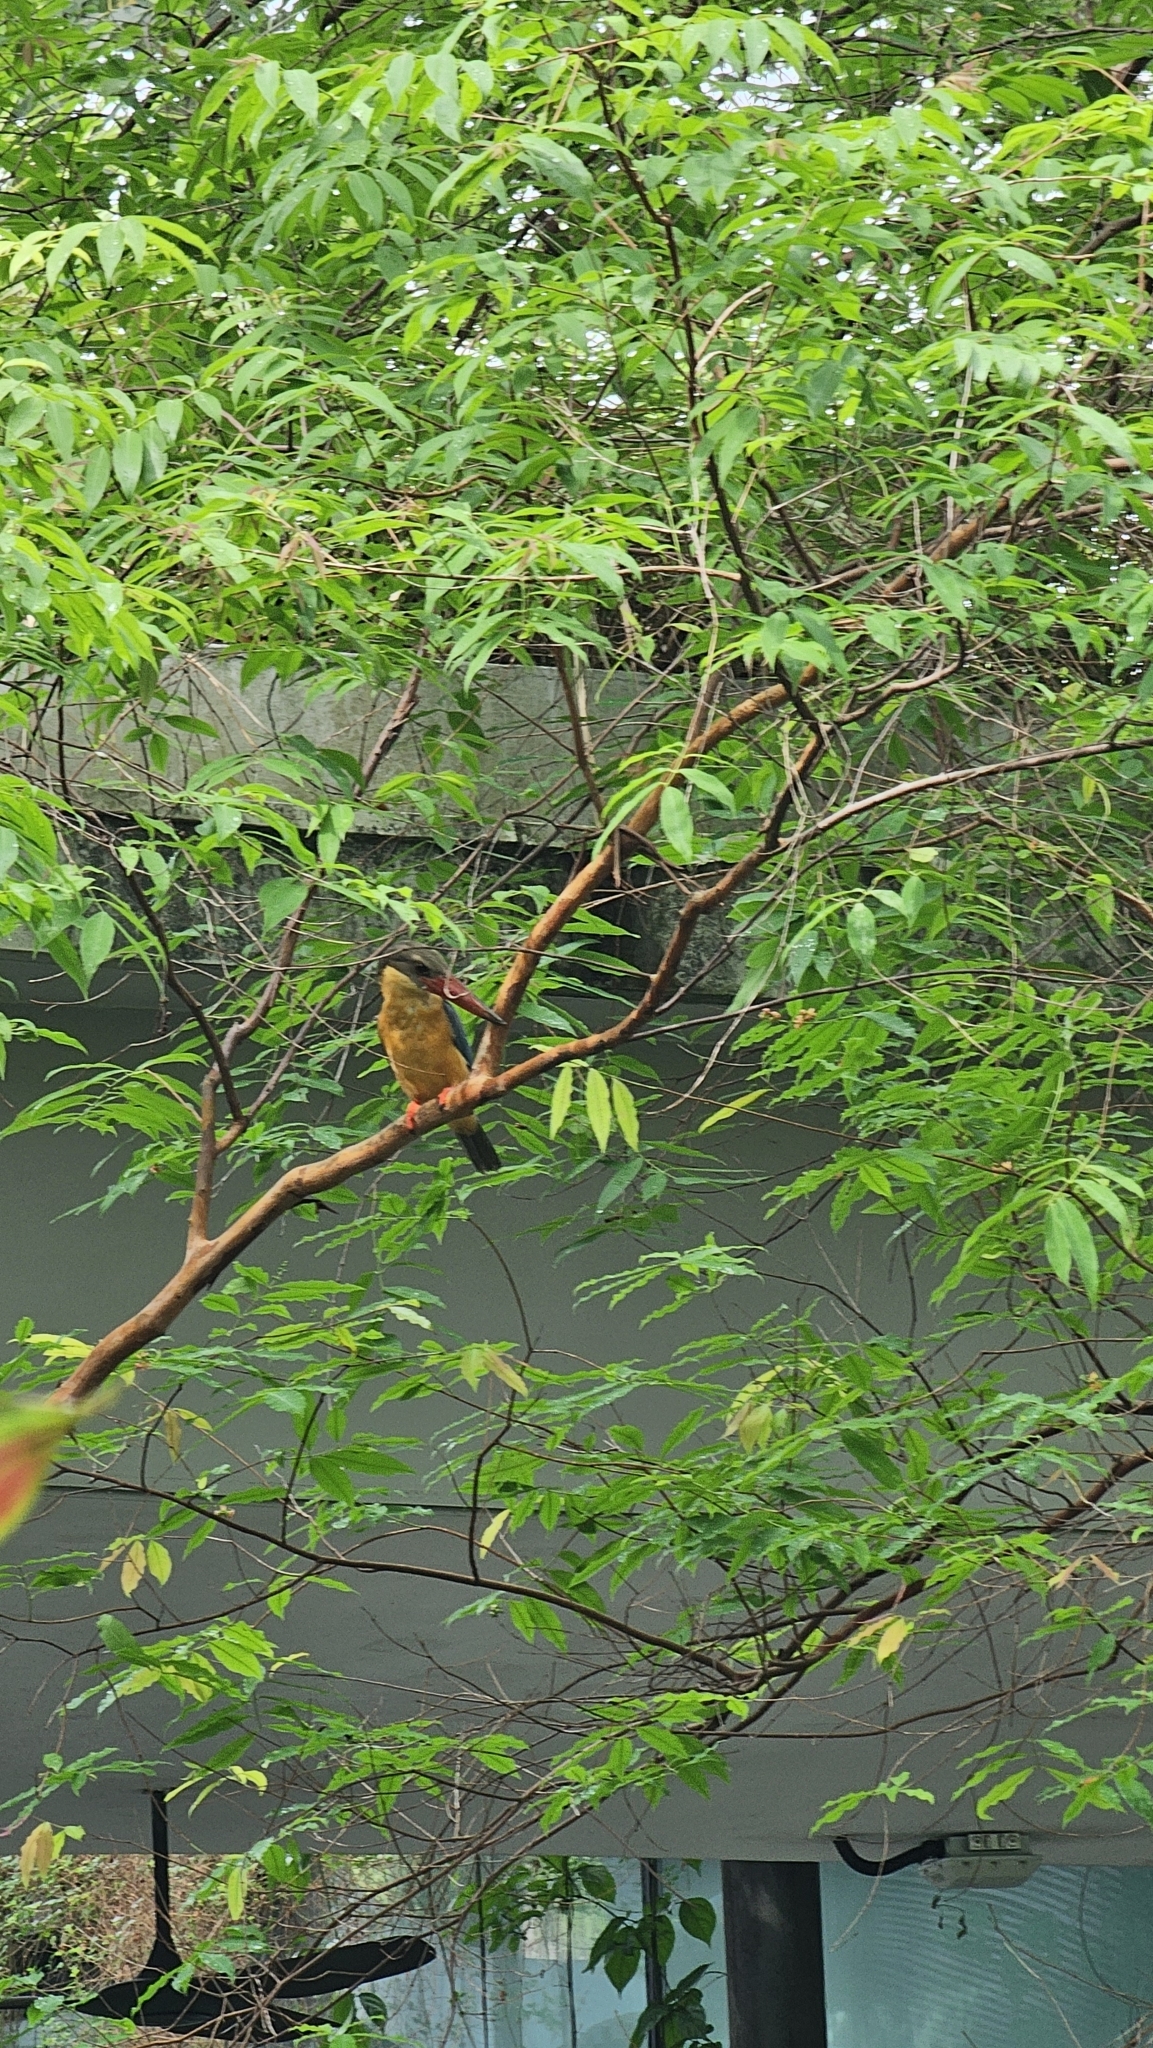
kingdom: Animalia
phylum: Chordata
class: Aves
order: Coraciiformes
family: Alcedinidae
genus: Pelargopsis
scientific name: Pelargopsis capensis
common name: Stork-billed kingfisher
